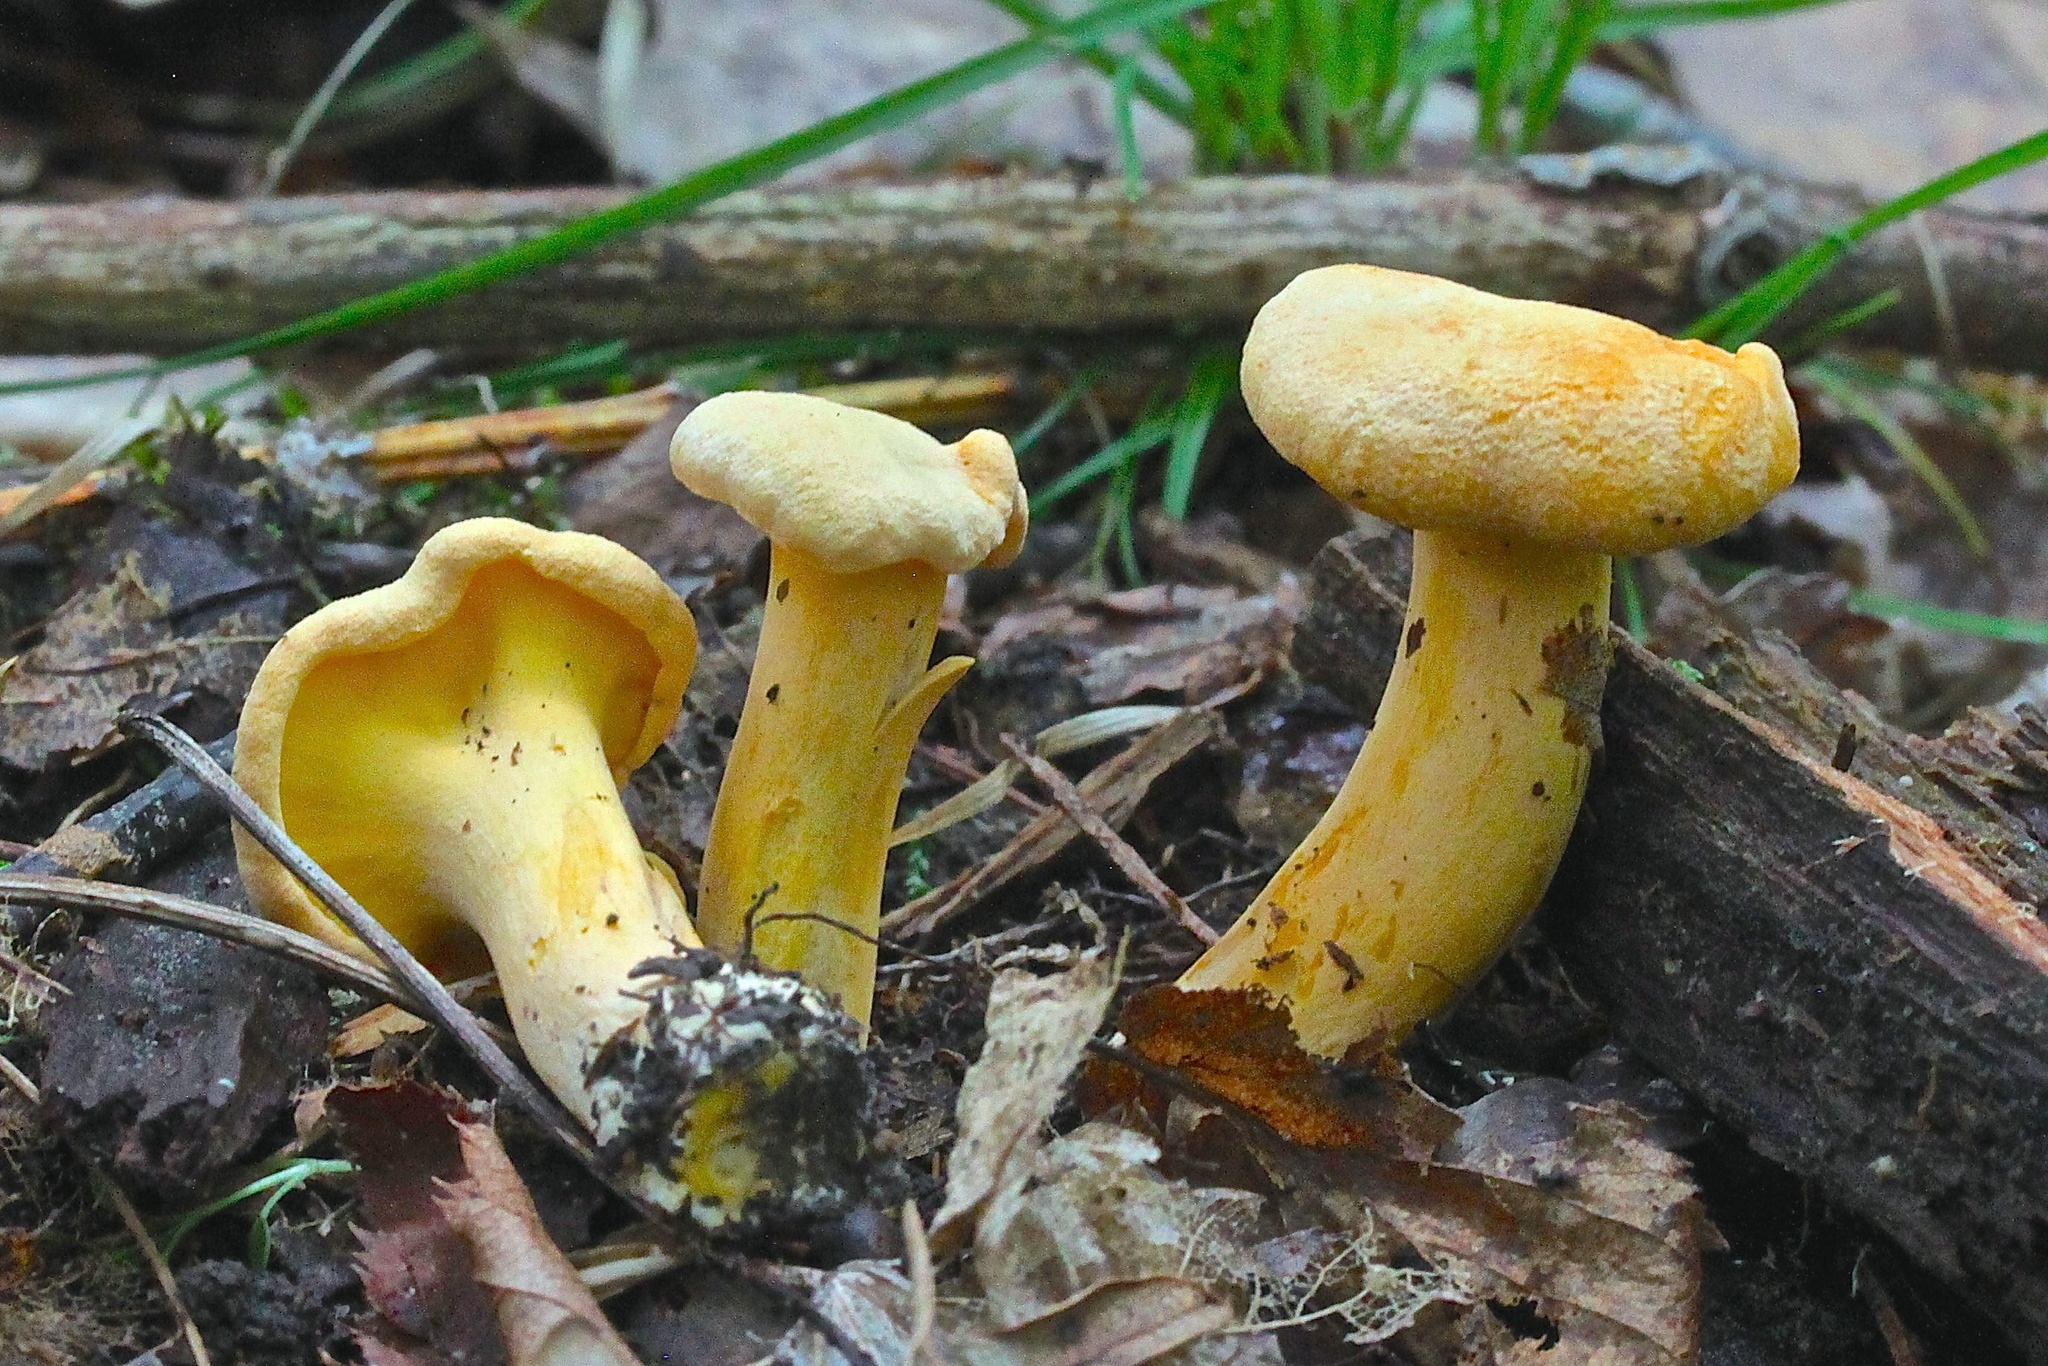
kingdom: Fungi
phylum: Basidiomycota
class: Agaricomycetes
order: Cantharellales
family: Hydnaceae
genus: Cantharellus
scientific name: Cantharellus lateritius
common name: Smooth chanterelle
